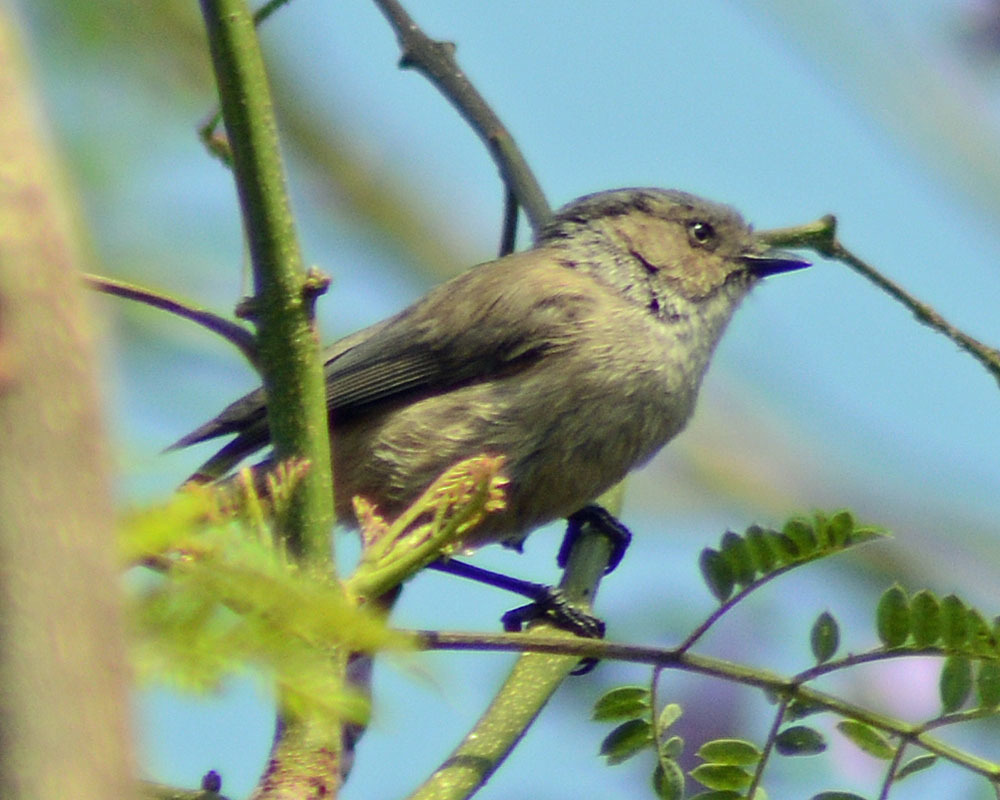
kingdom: Animalia
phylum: Chordata
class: Aves
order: Passeriformes
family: Aegithalidae
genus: Psaltriparus
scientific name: Psaltriparus minimus
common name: American bushtit
